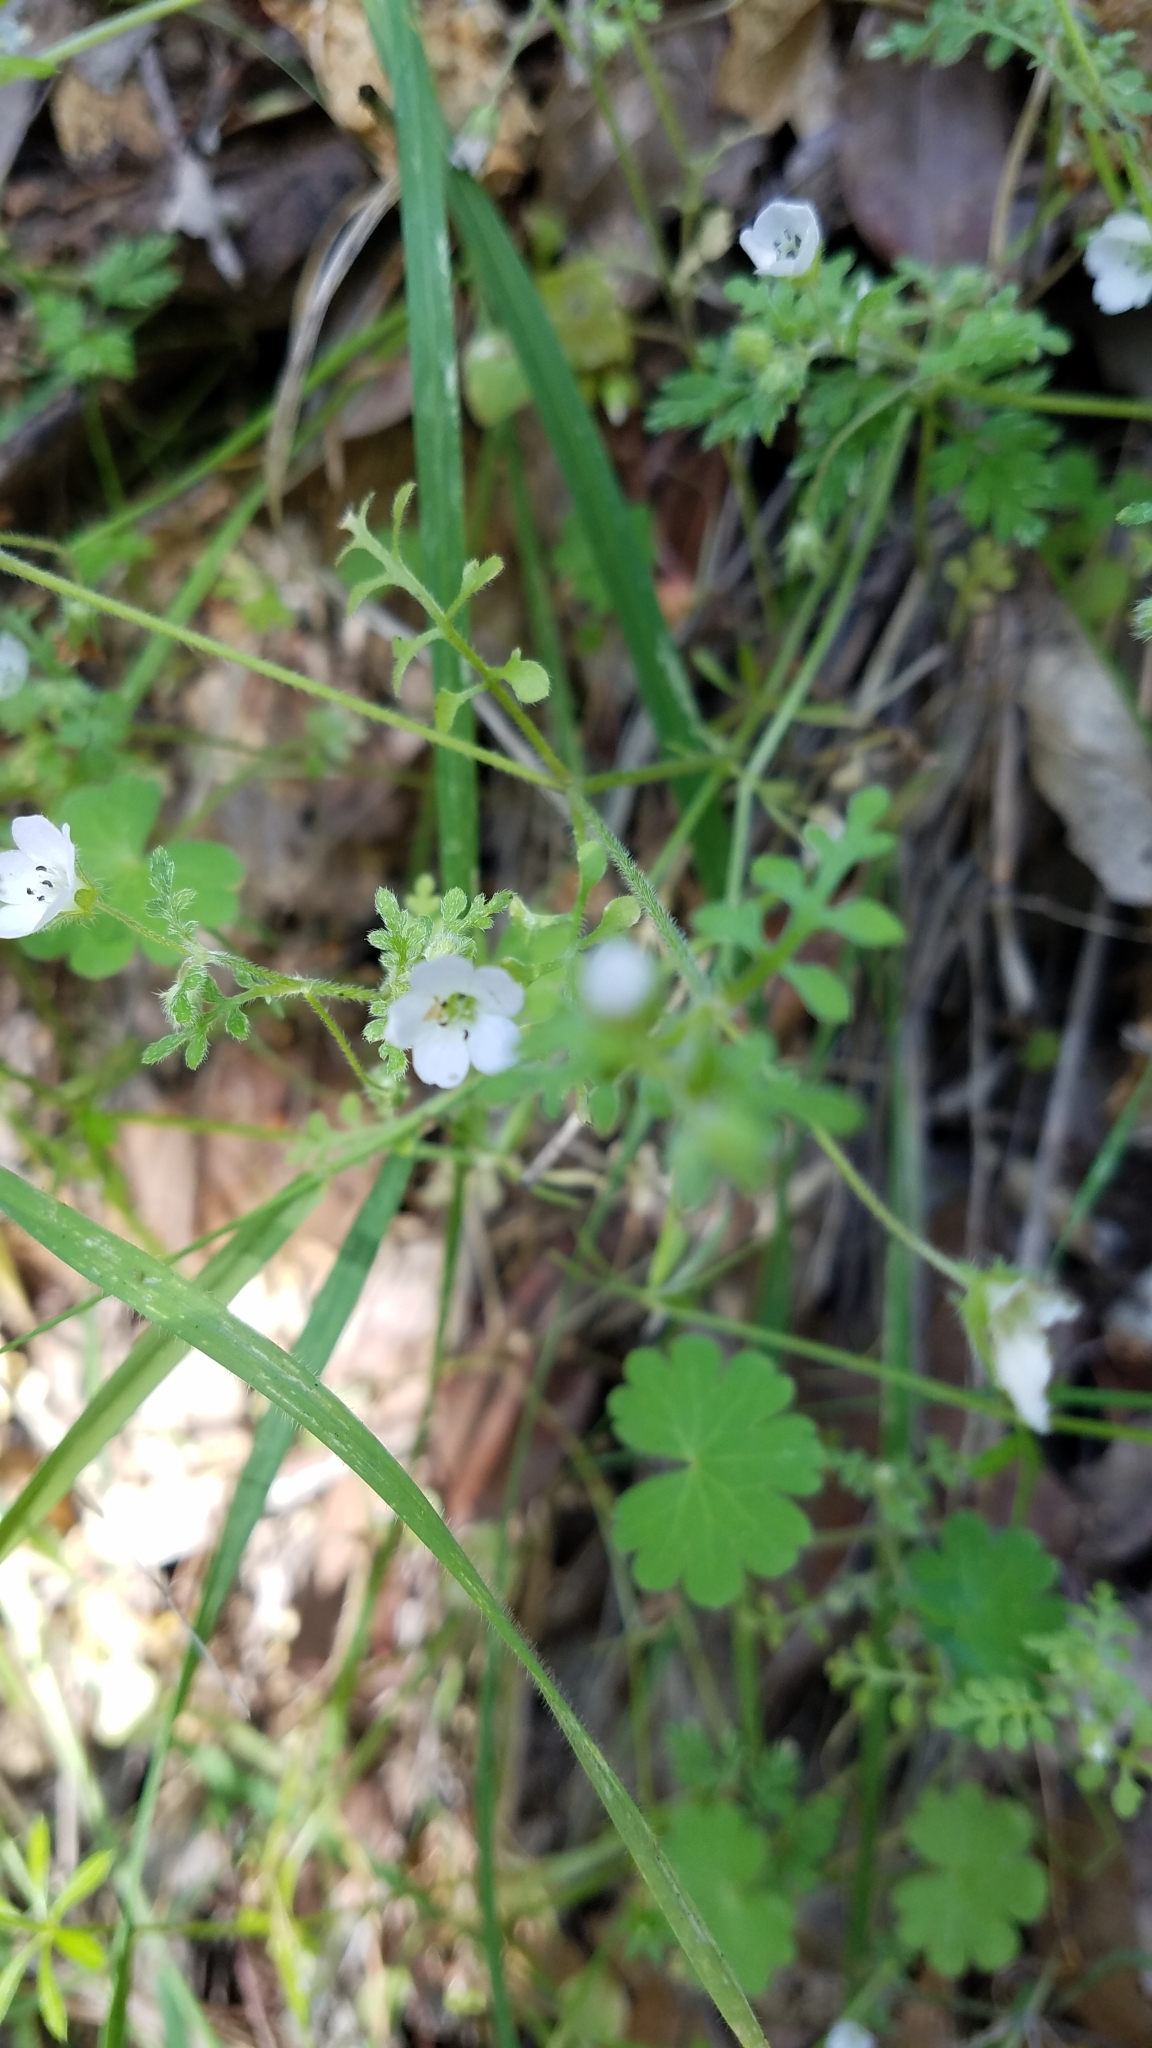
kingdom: Plantae
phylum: Tracheophyta
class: Magnoliopsida
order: Boraginales
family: Hydrophyllaceae
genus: Nemophila
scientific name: Nemophila heterophylla
